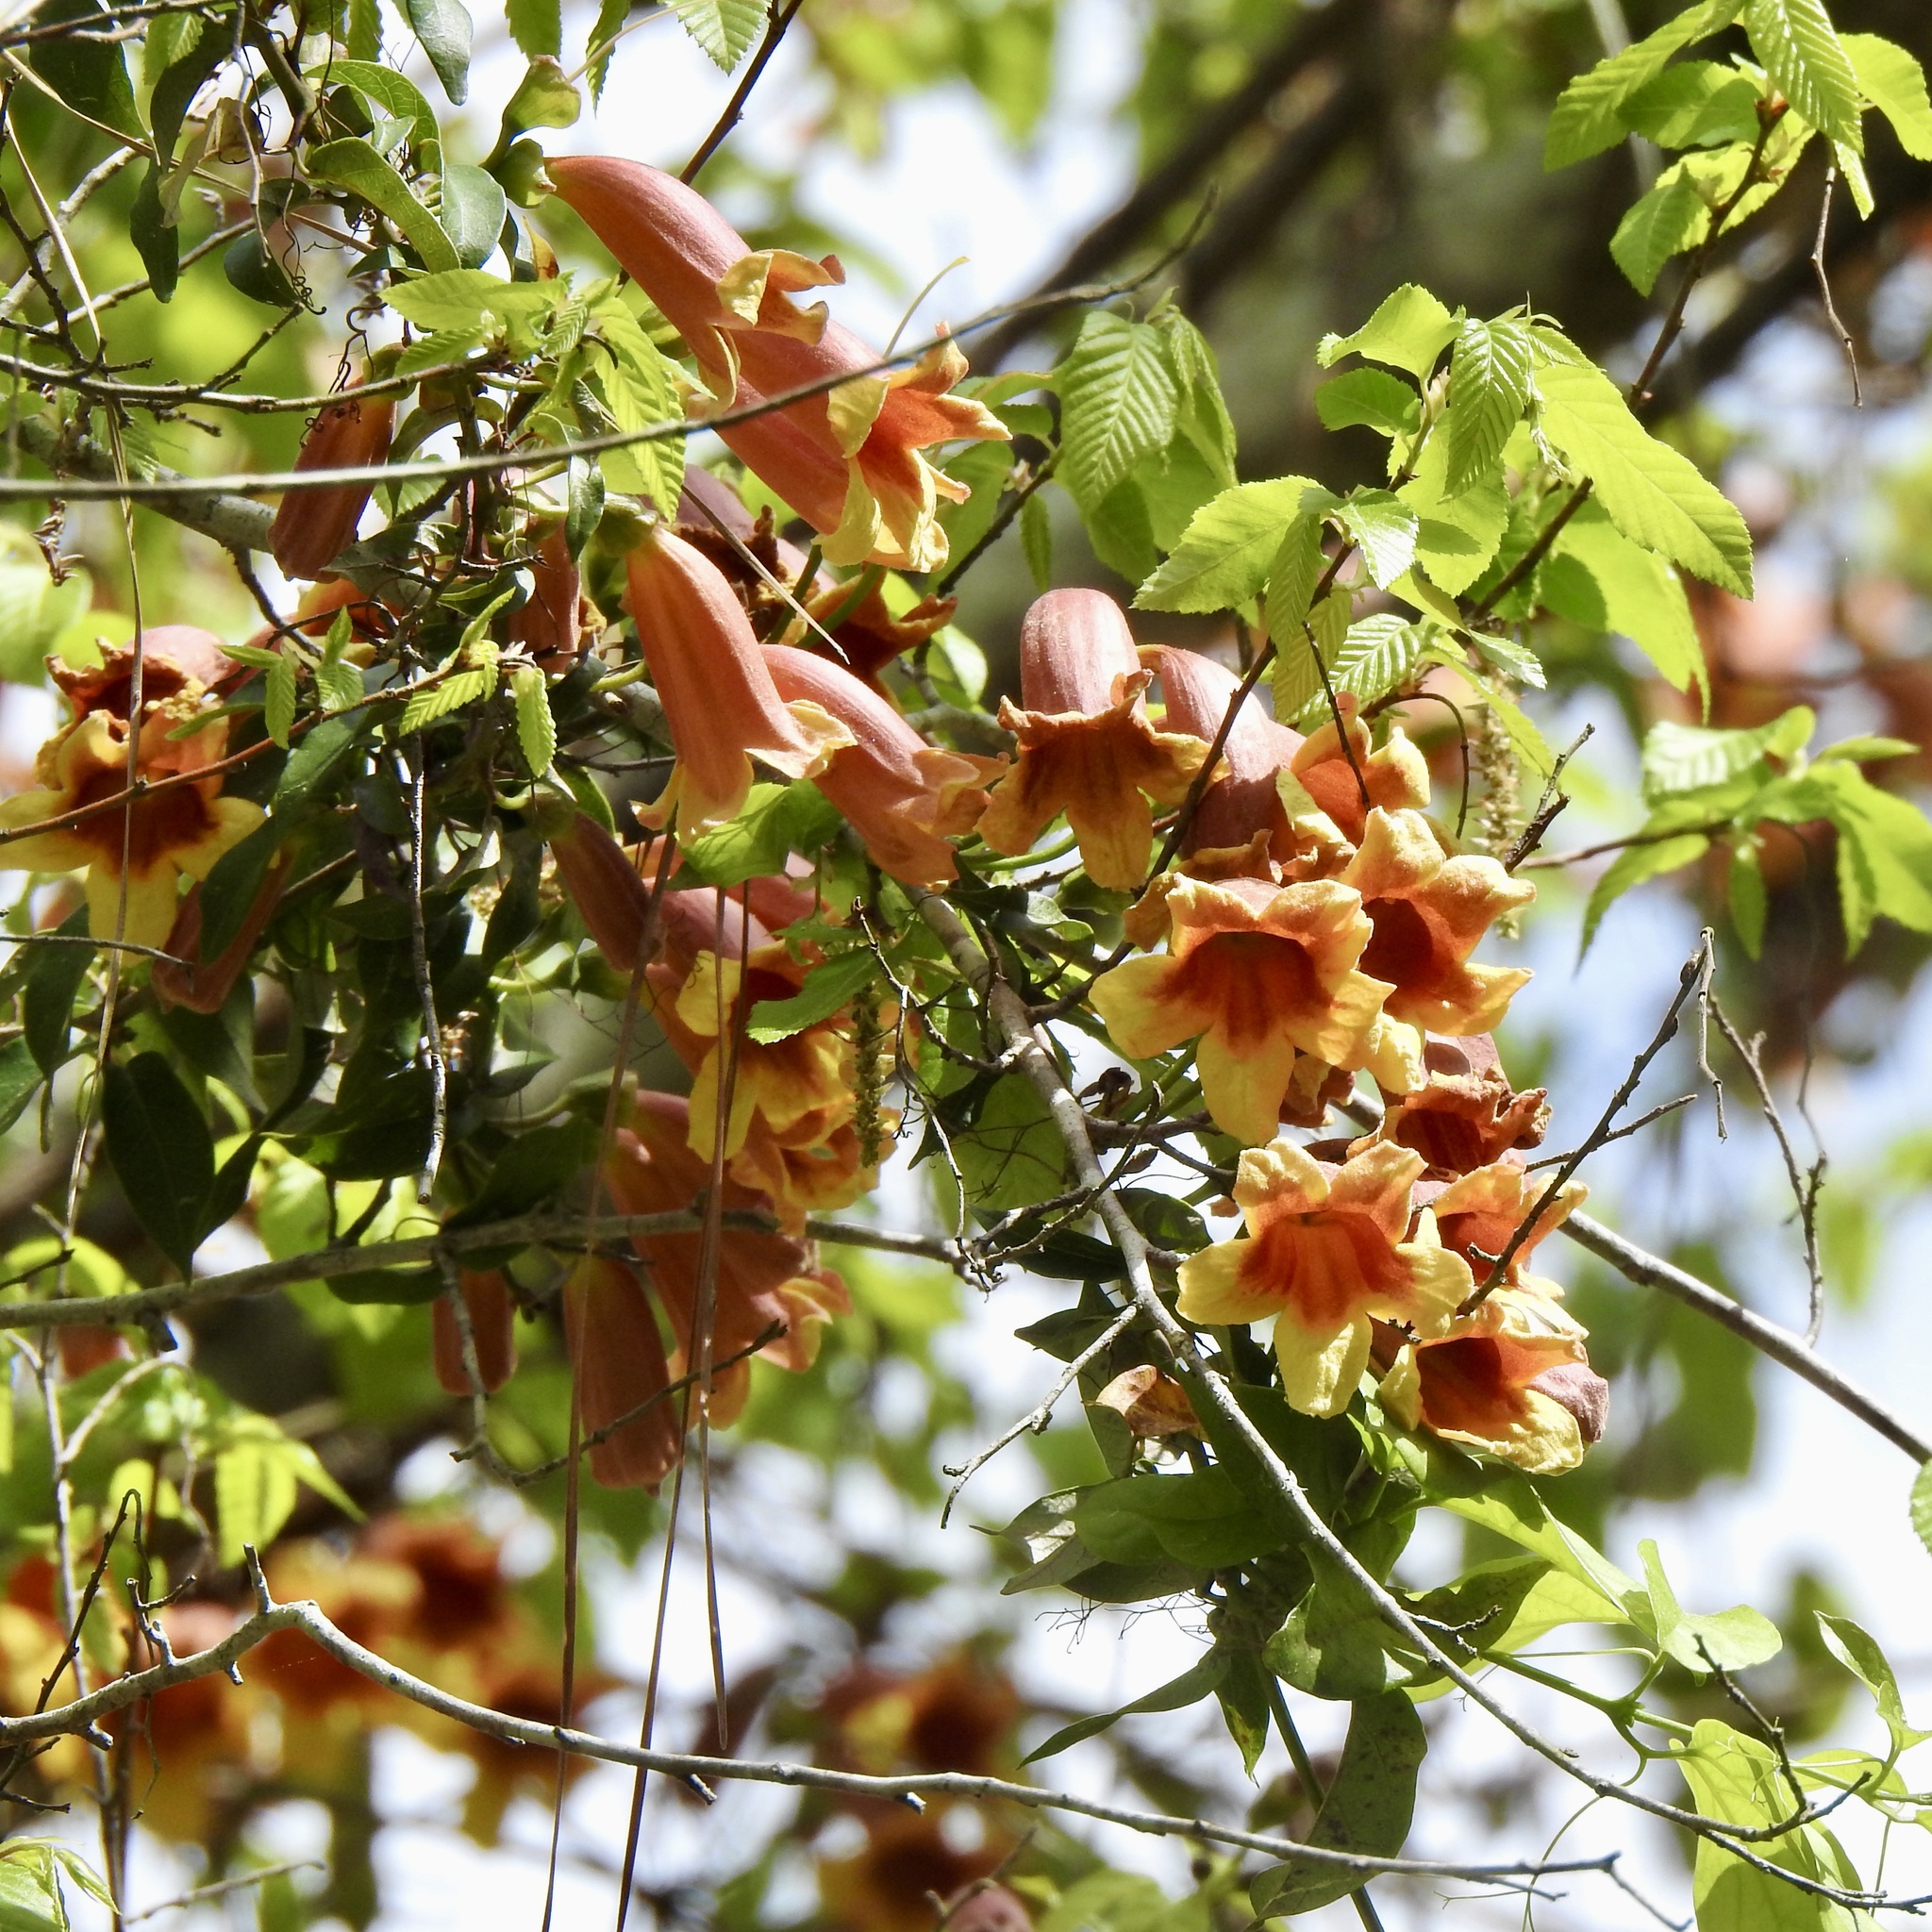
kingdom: Plantae
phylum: Tracheophyta
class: Magnoliopsida
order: Lamiales
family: Bignoniaceae
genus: Bignonia
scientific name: Bignonia capreolata
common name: Crossvine
